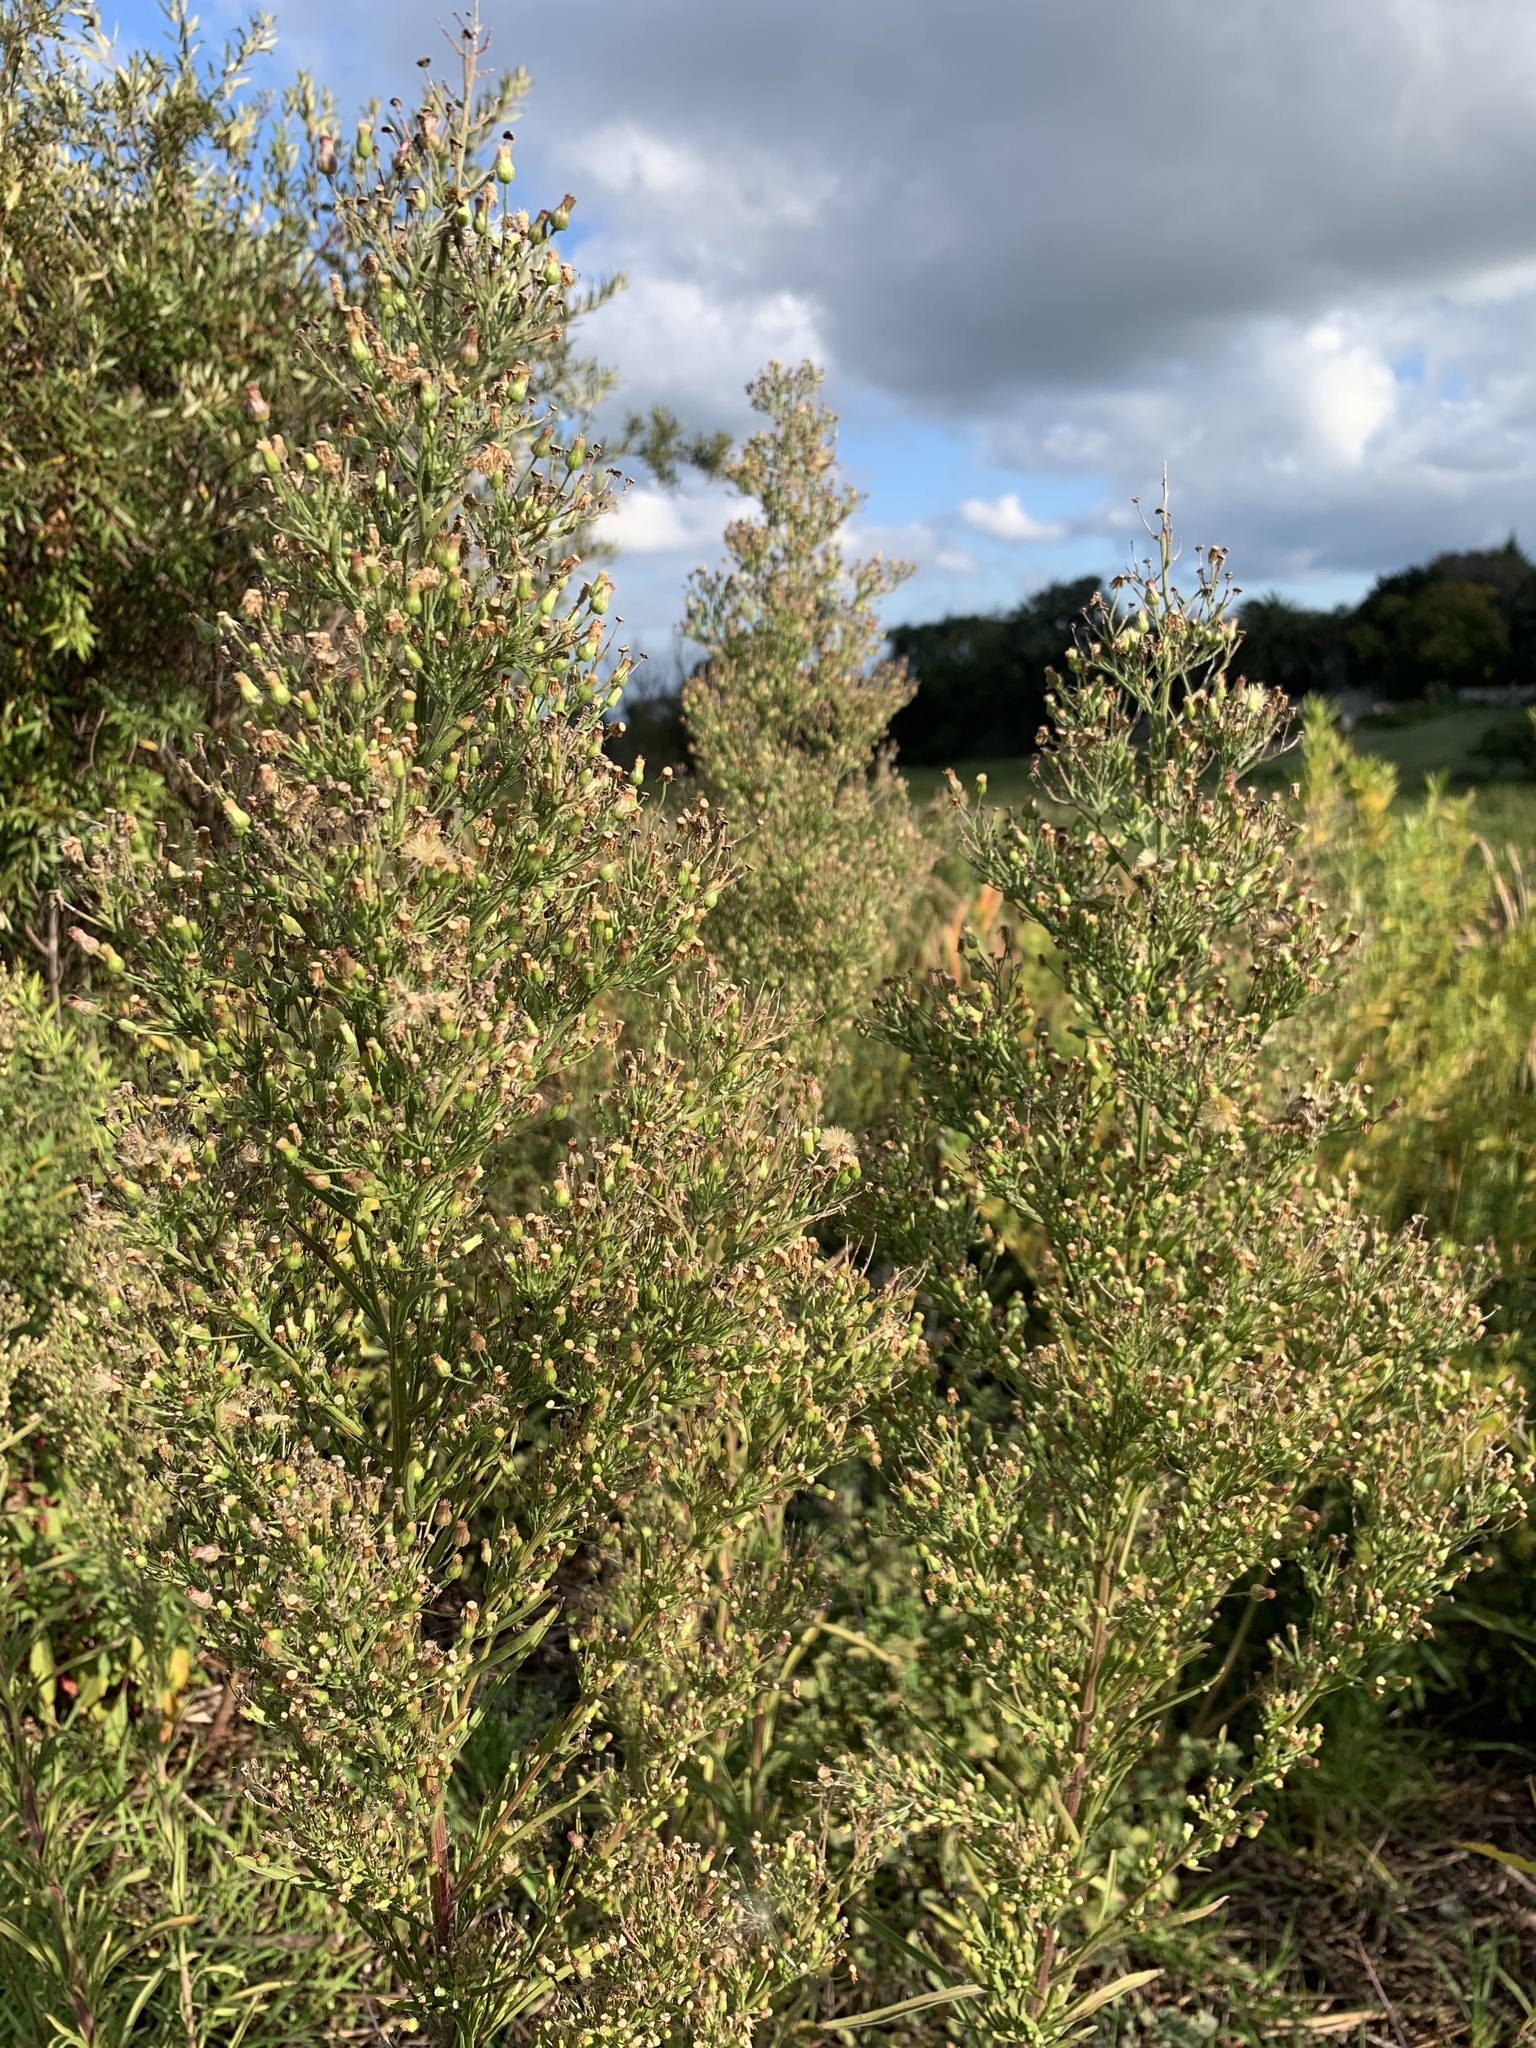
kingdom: Plantae
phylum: Tracheophyta
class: Magnoliopsida
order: Asterales
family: Asteraceae
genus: Erigeron
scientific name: Erigeron sumatrensis
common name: Daisy
